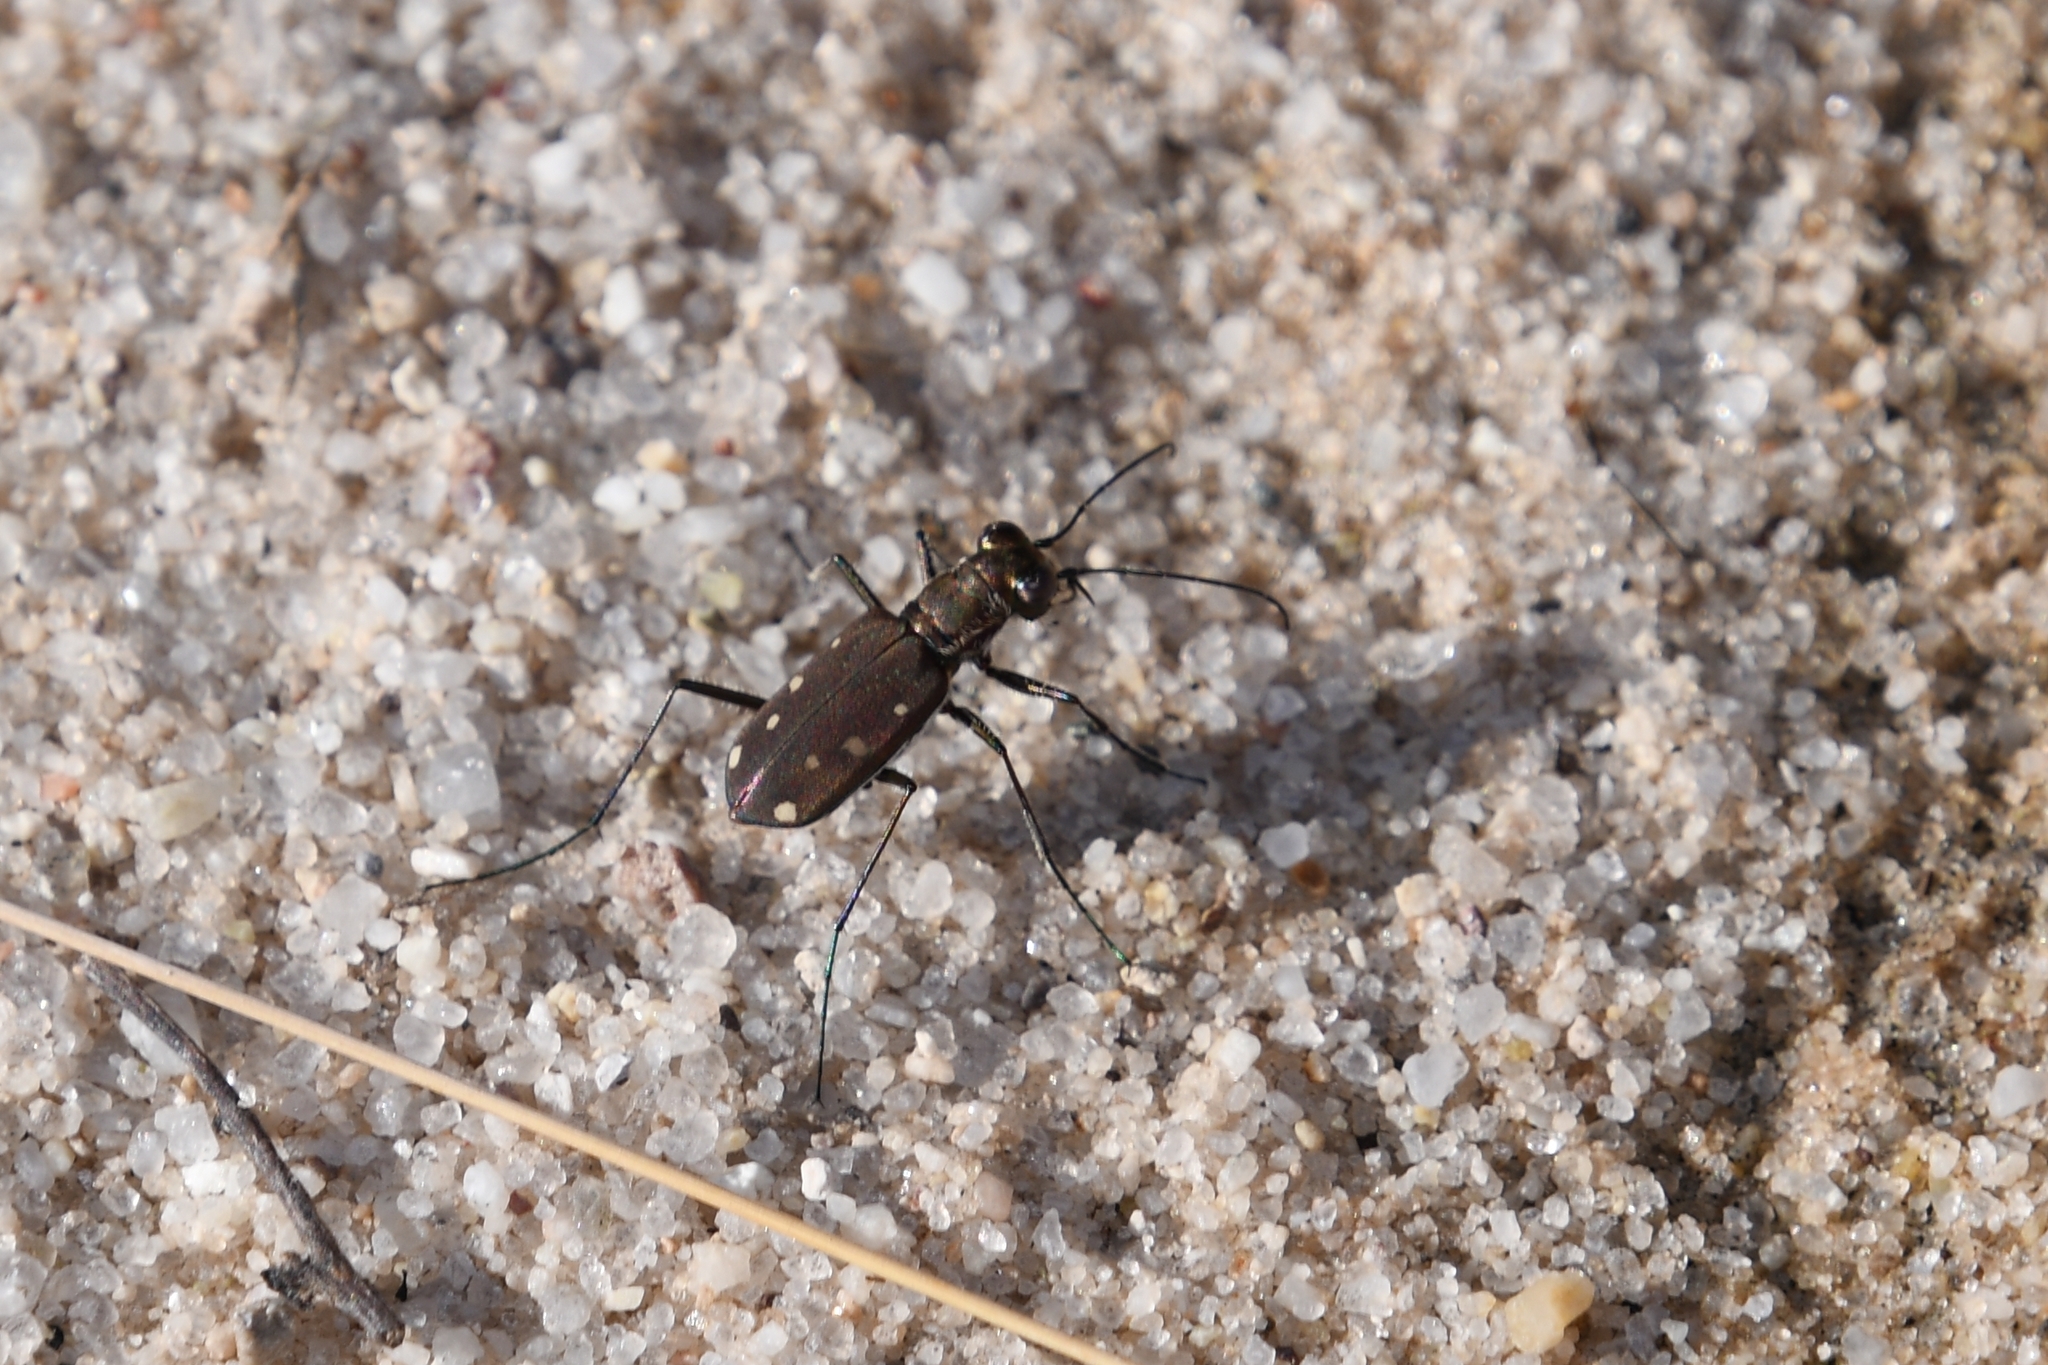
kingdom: Animalia
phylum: Arthropoda
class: Insecta
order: Coleoptera
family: Carabidae
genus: Cicindela
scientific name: Cicindela ocellata
